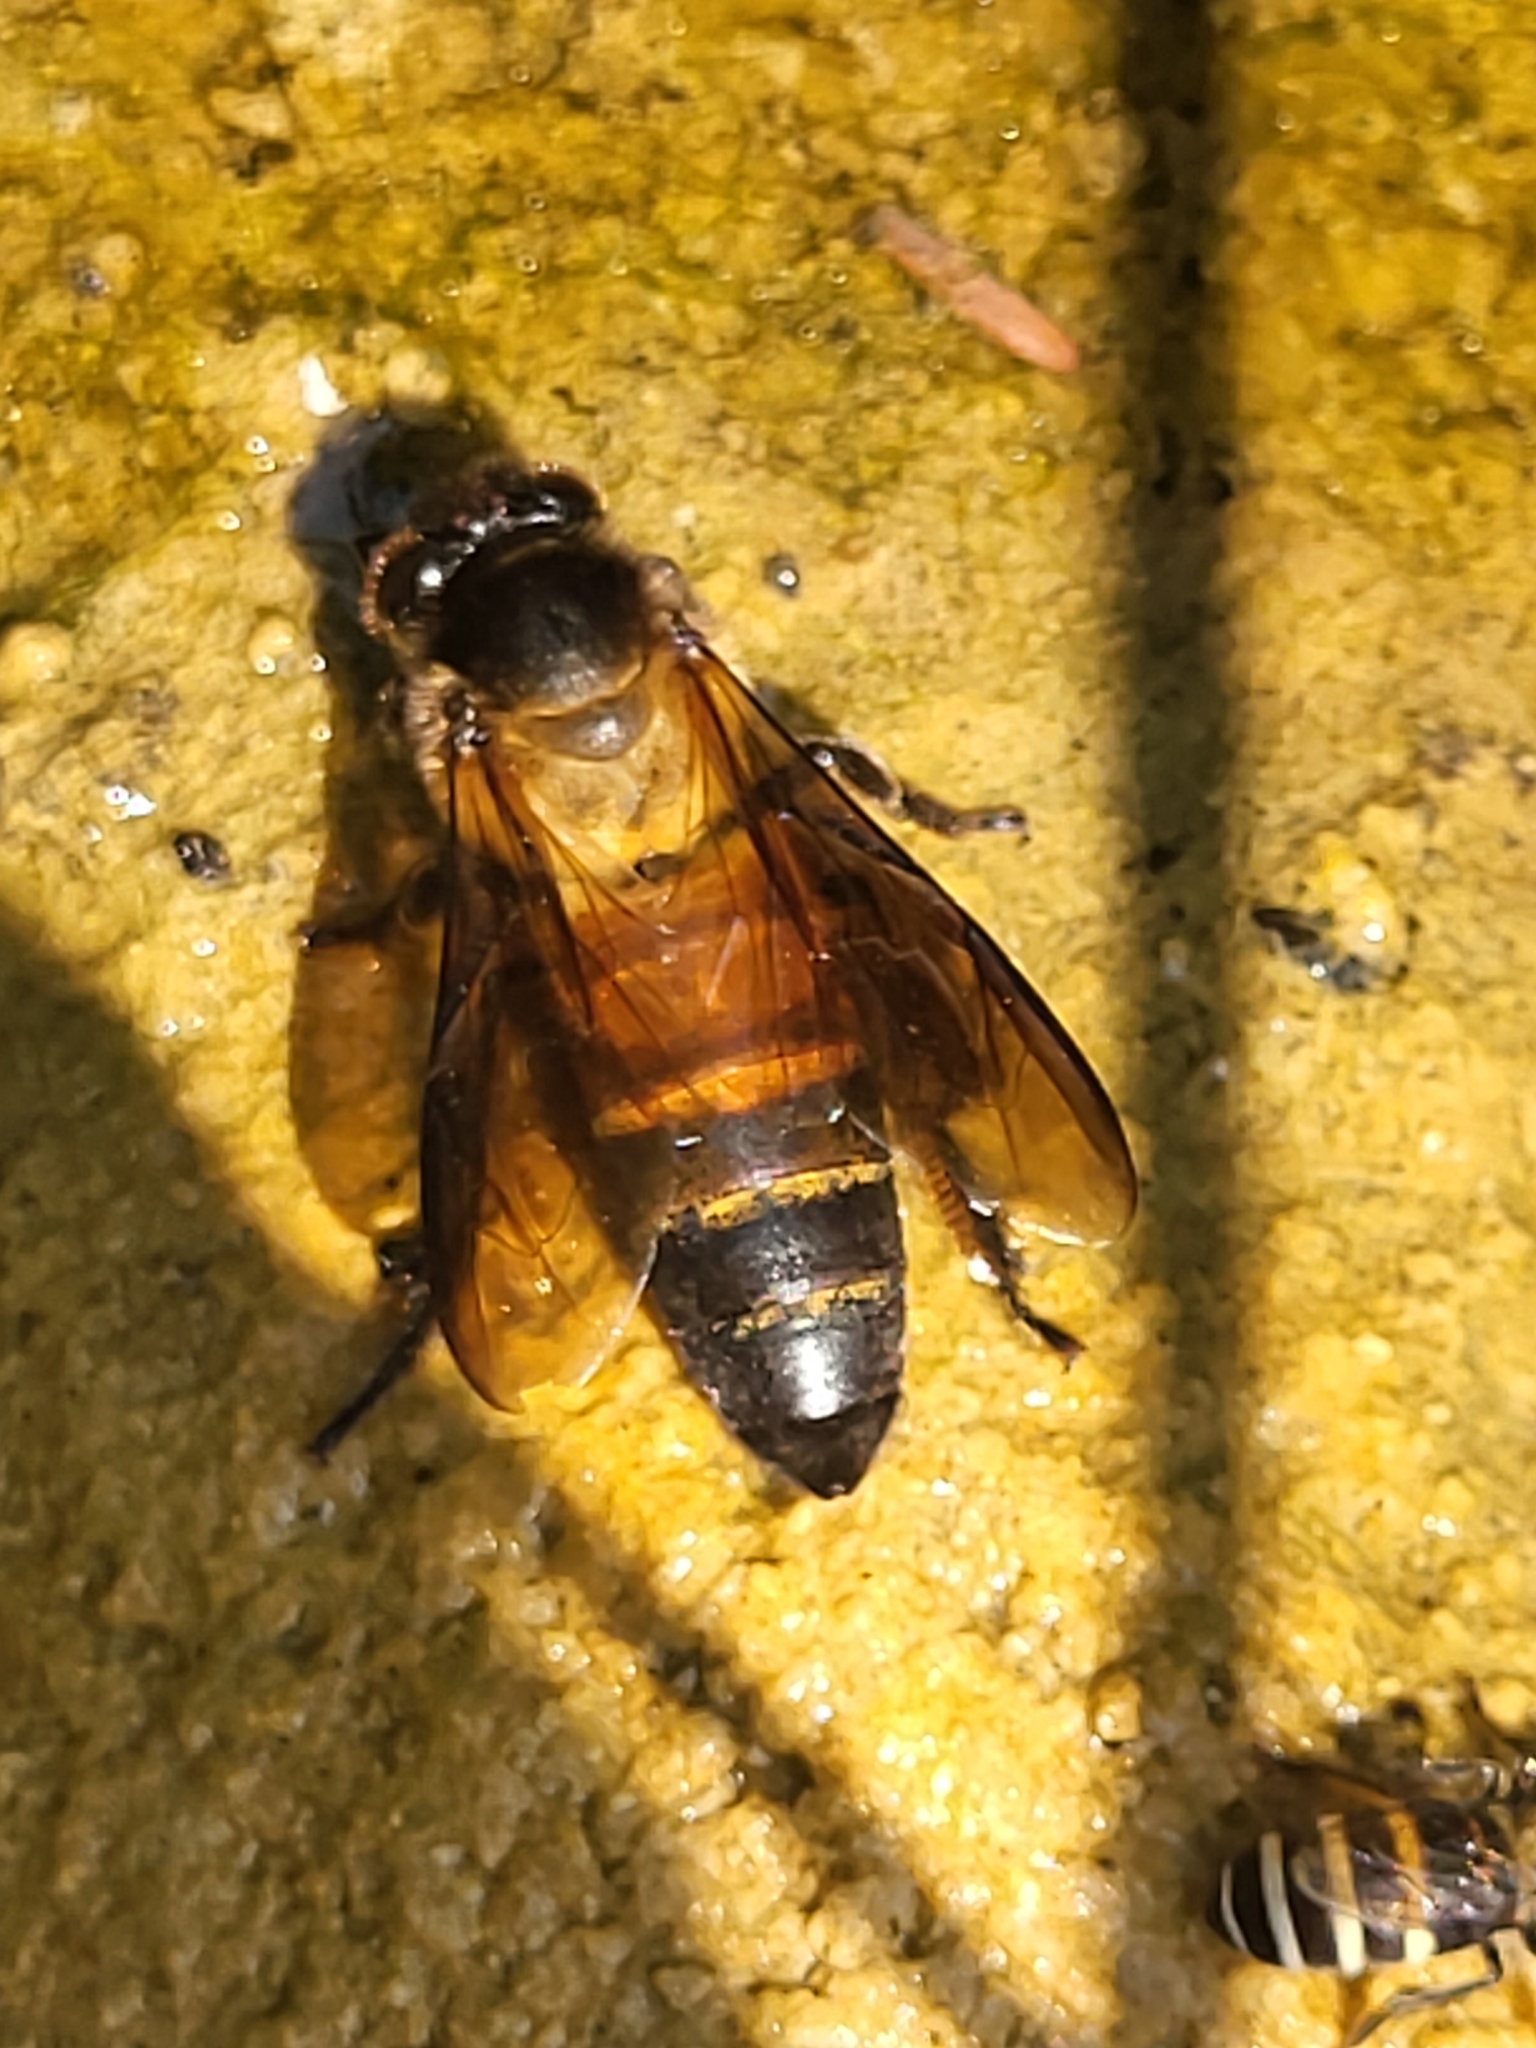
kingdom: Animalia
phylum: Arthropoda
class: Insecta
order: Hymenoptera
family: Apidae
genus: Apis
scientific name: Apis dorsata
